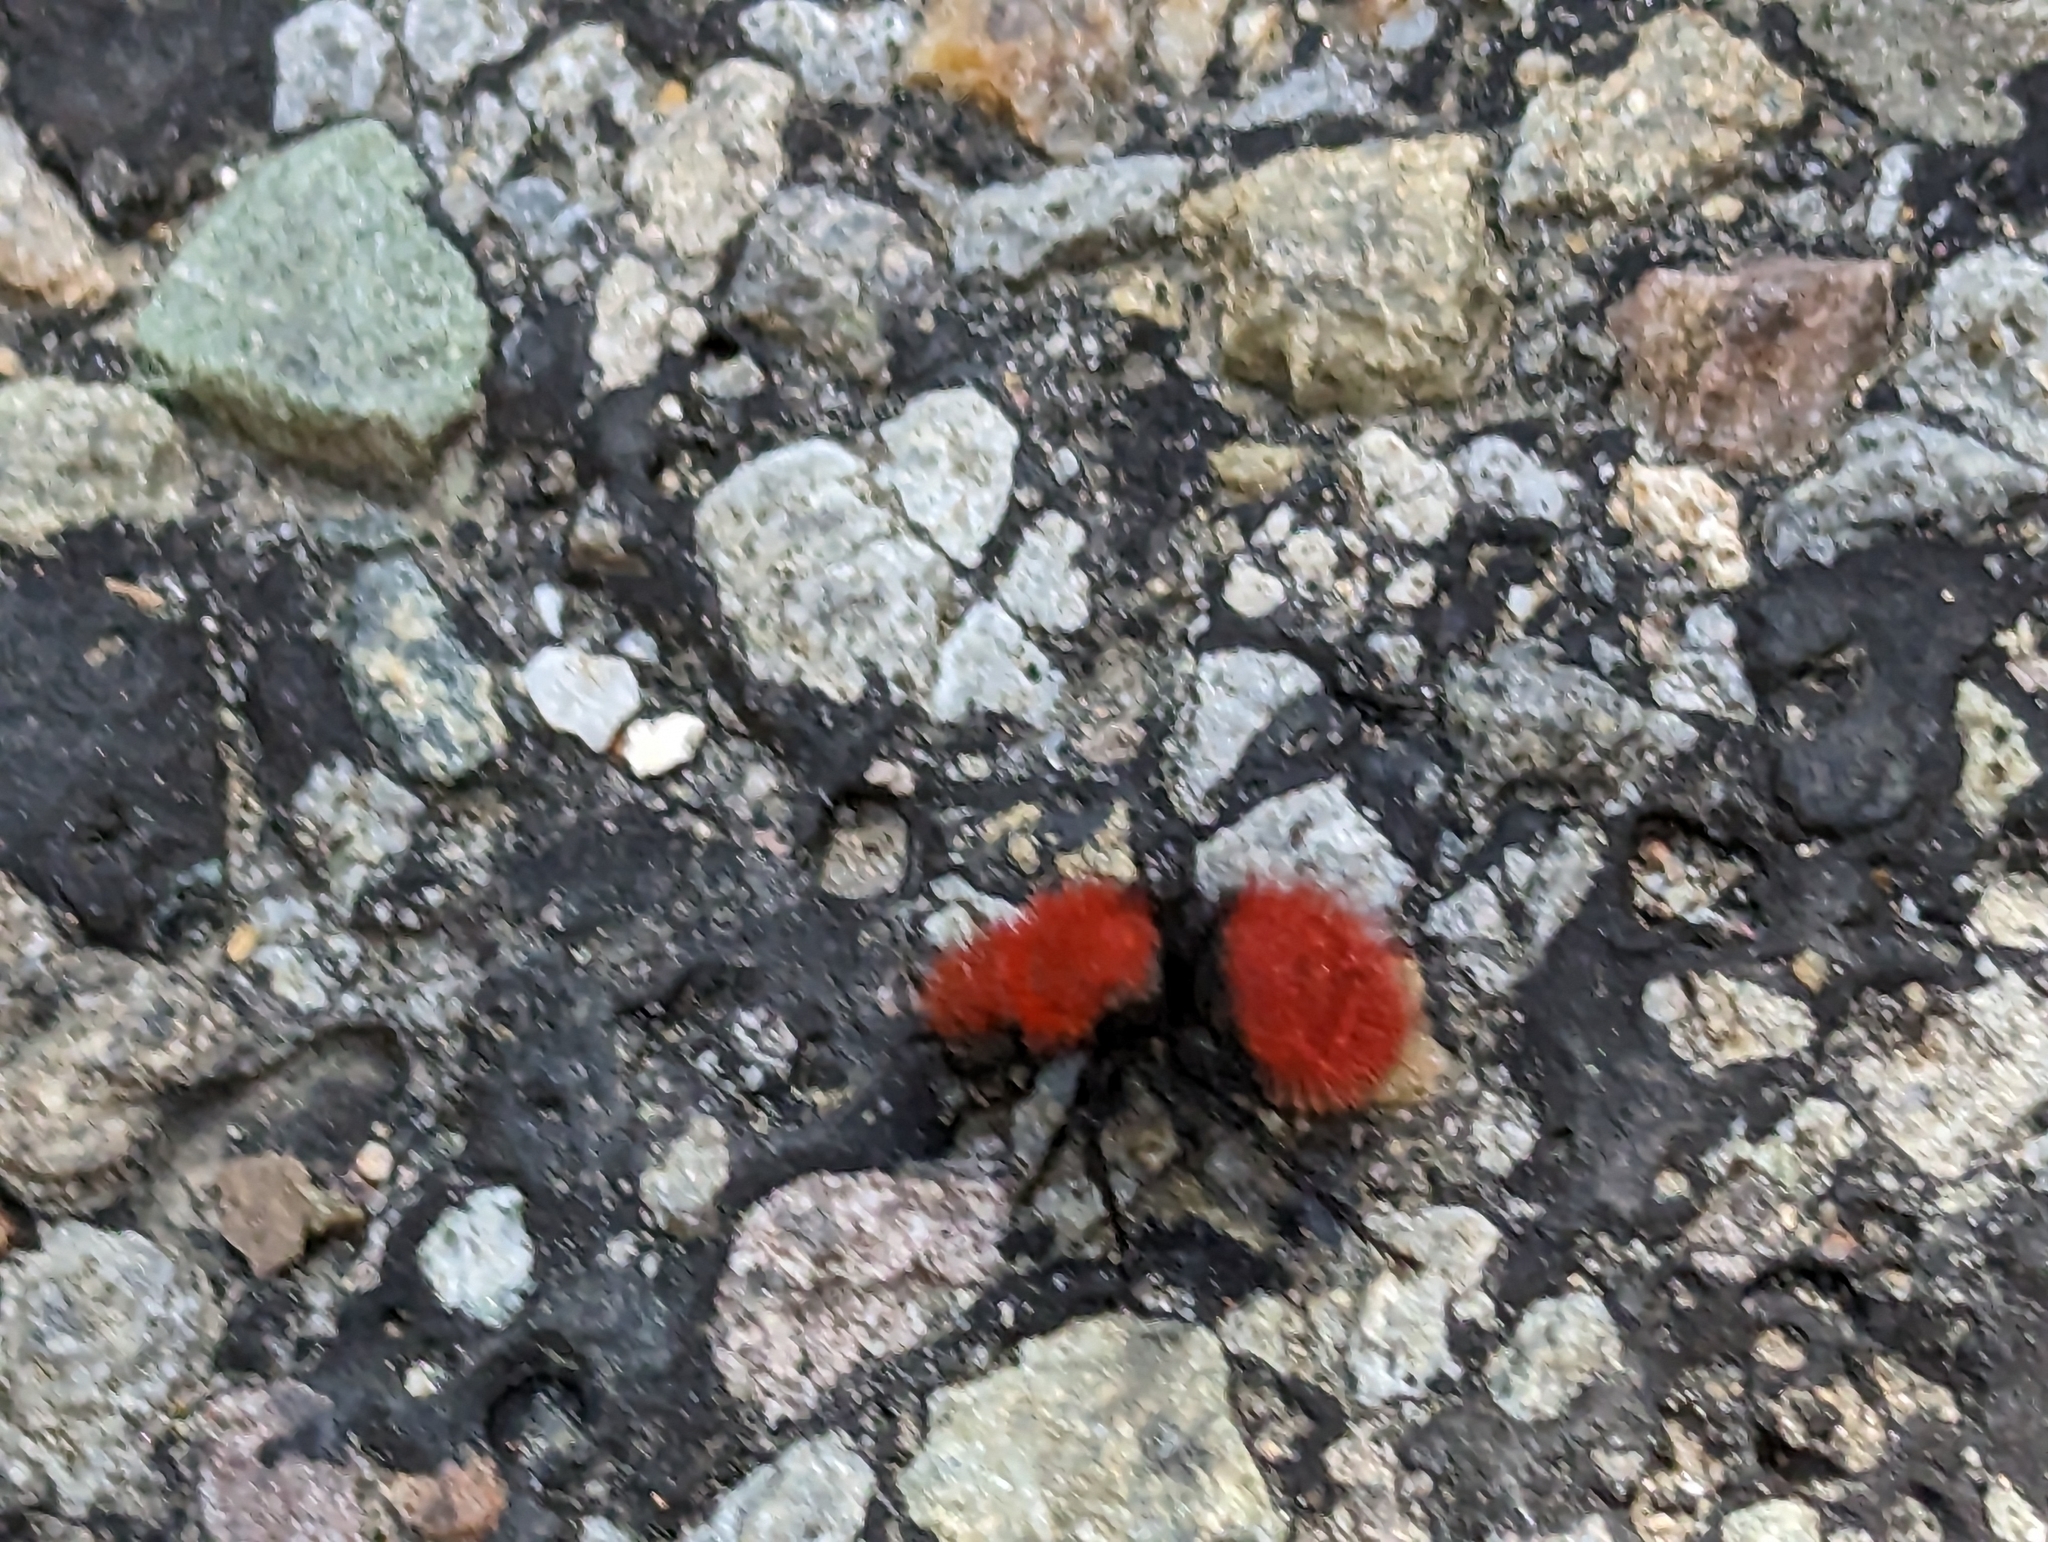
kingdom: Animalia
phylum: Arthropoda
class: Insecta
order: Hymenoptera
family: Mutillidae
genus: Dasymutilla
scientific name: Dasymutilla
